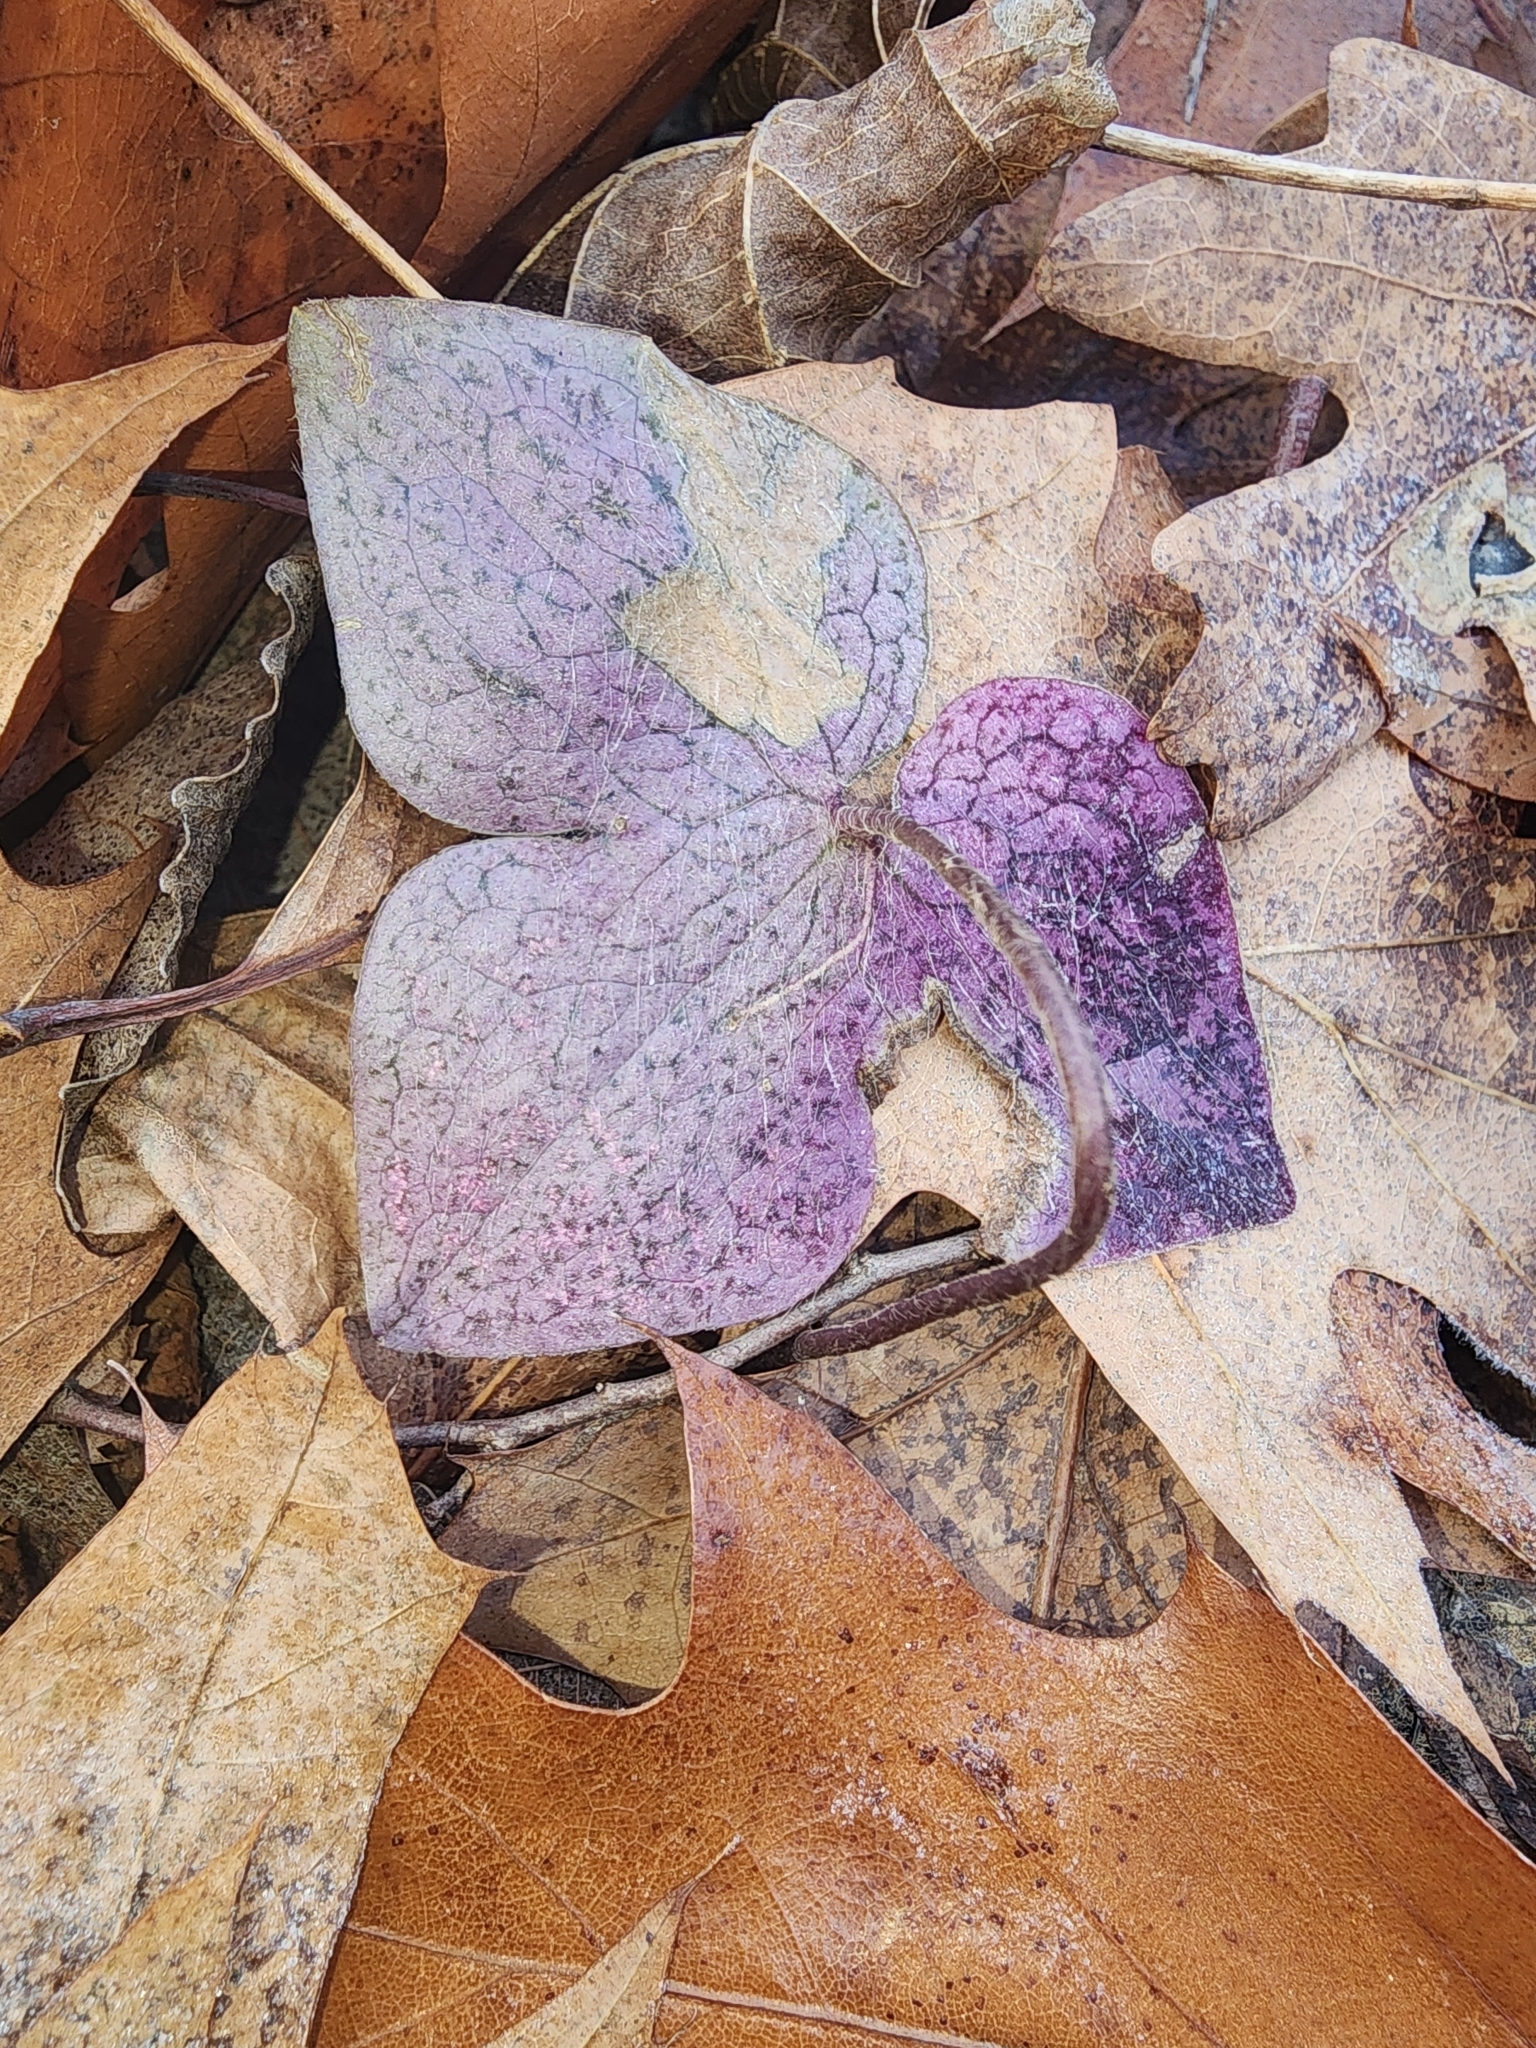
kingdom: Plantae
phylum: Tracheophyta
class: Magnoliopsida
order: Ranunculales
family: Ranunculaceae
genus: Hepatica
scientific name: Hepatica acutiloba
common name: Sharp-lobed hepatica
